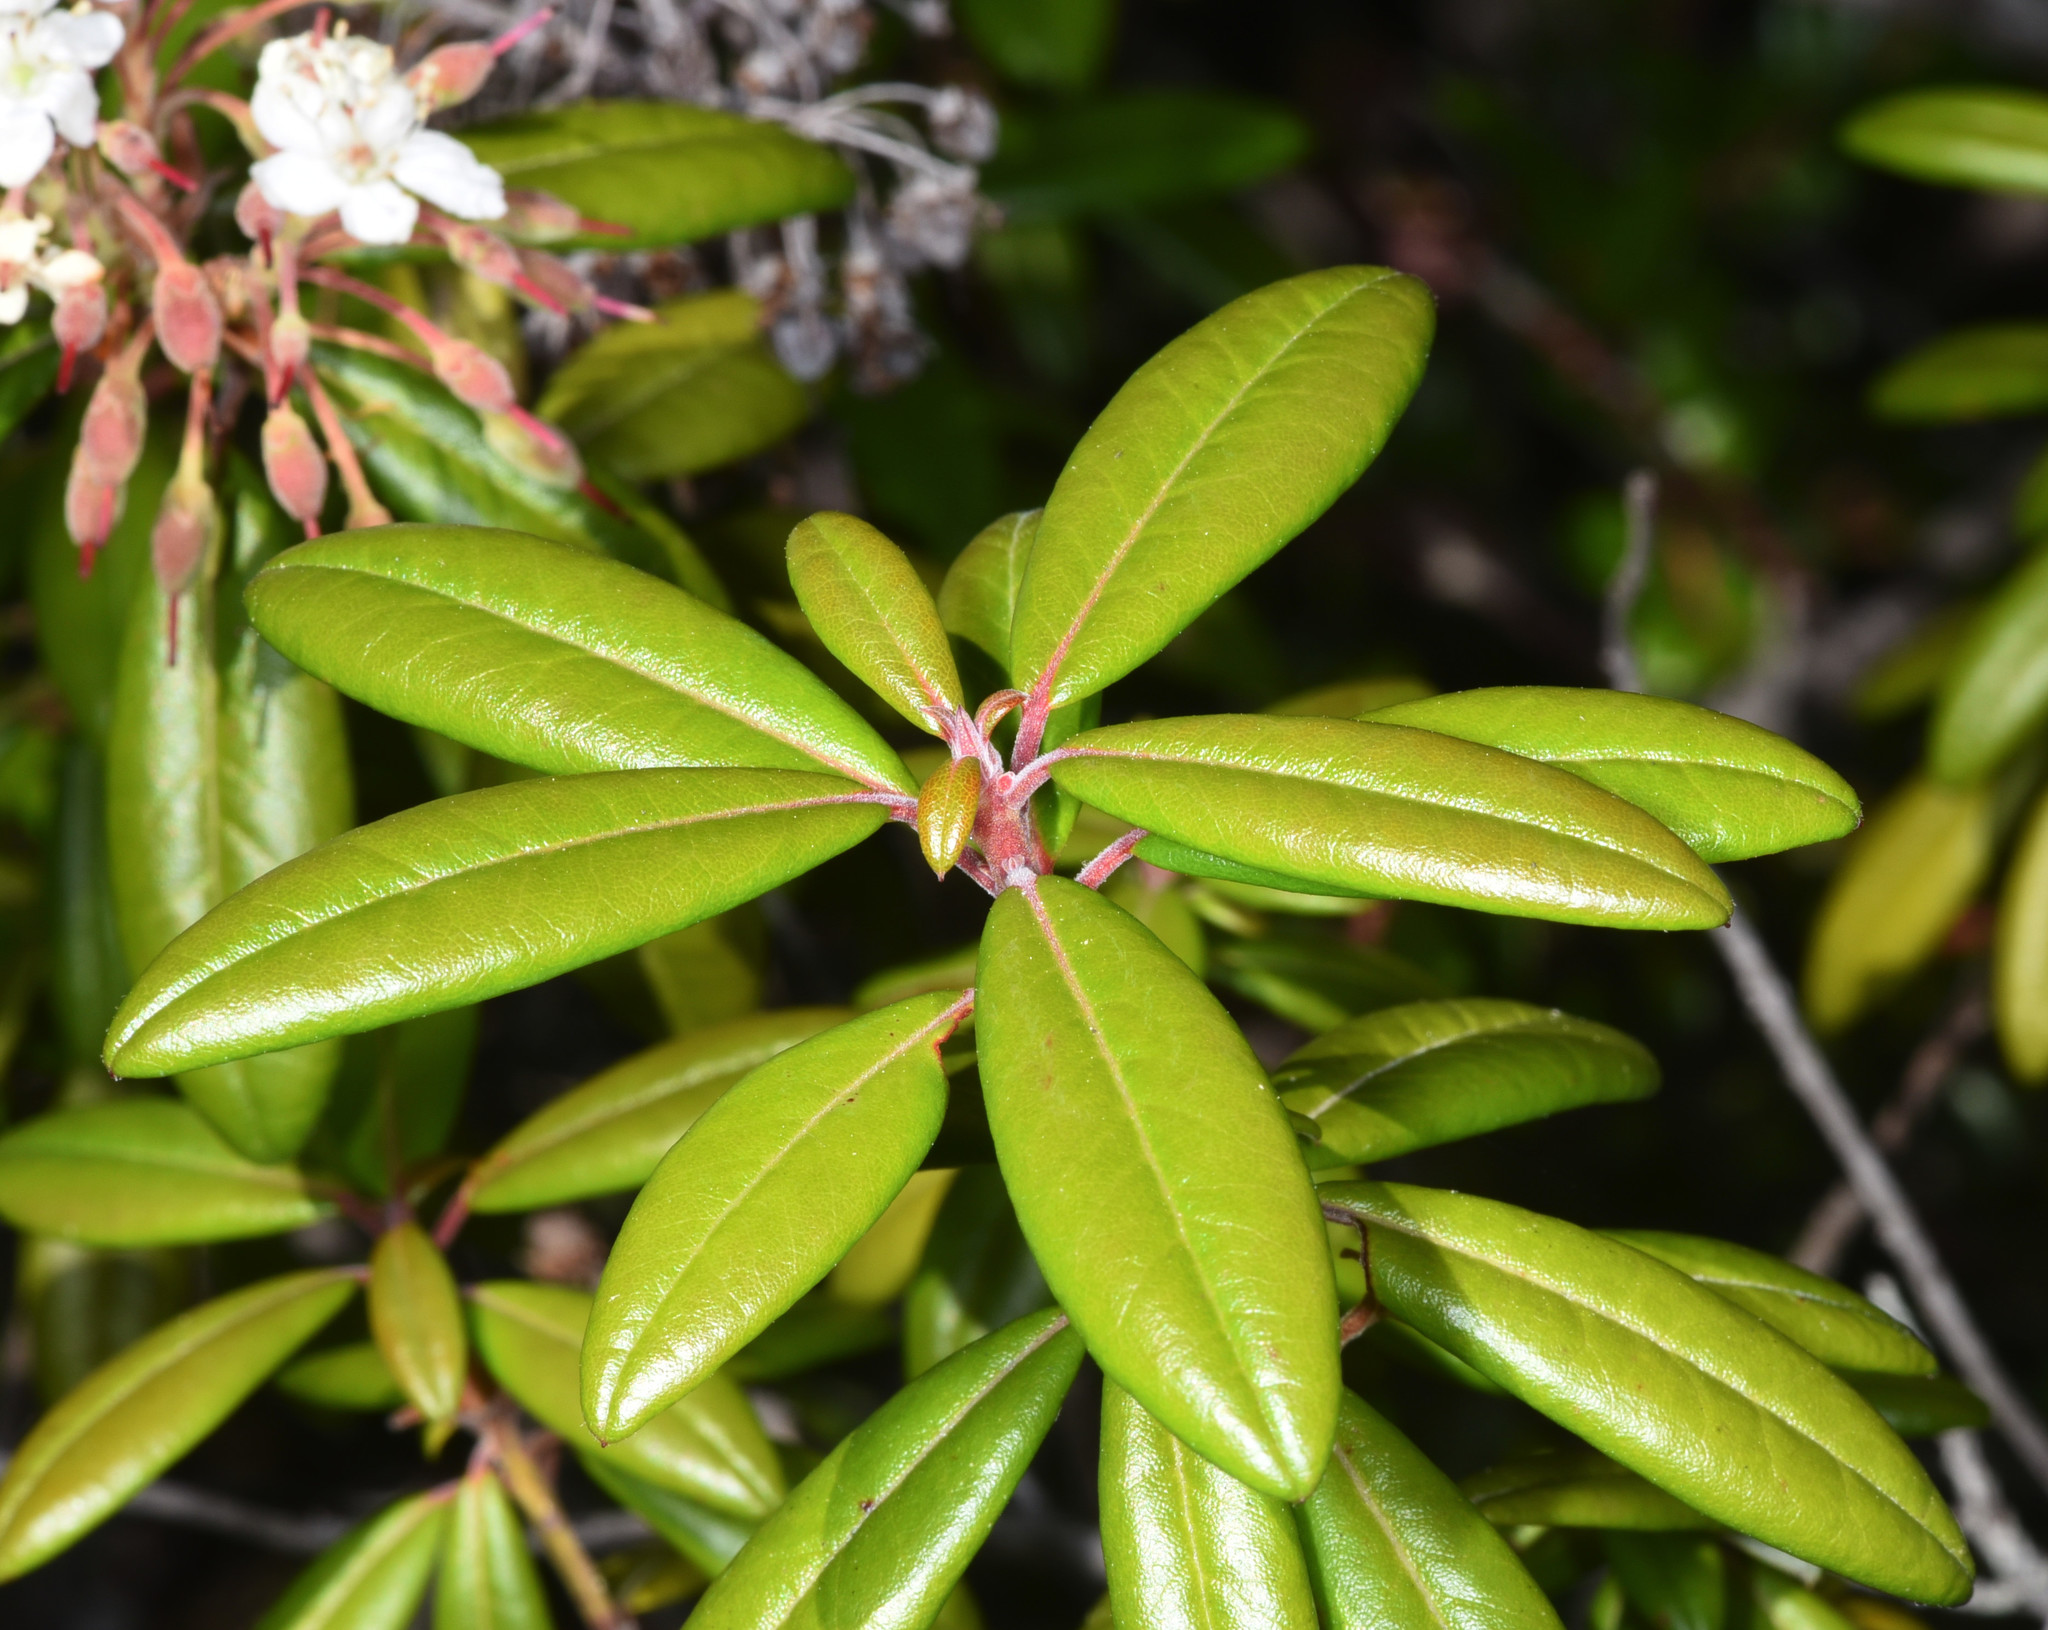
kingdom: Plantae
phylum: Tracheophyta
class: Magnoliopsida
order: Ericales
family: Ericaceae
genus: Rhododendron
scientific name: Rhododendron columbianum
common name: Western labrador tea
